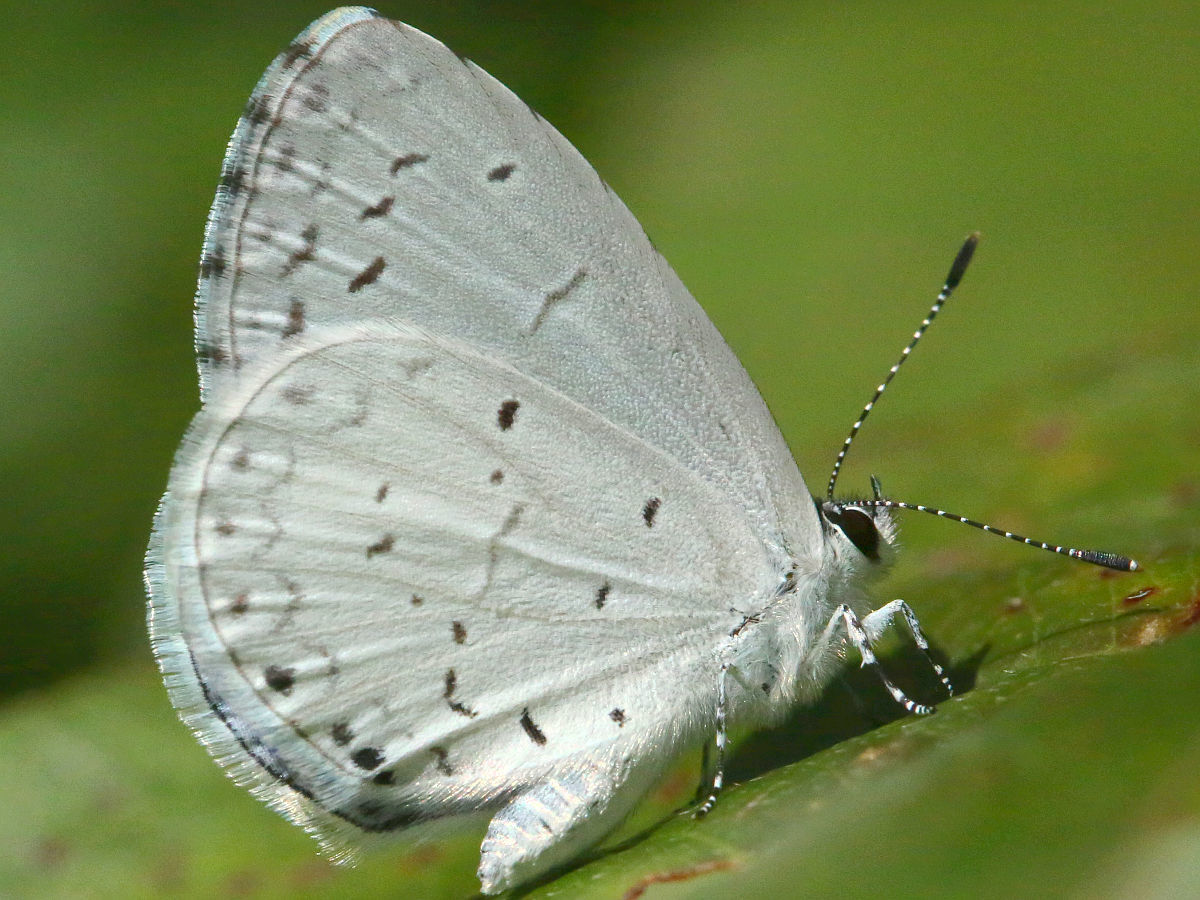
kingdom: Animalia
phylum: Arthropoda
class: Insecta
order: Lepidoptera
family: Lycaenidae
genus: Cyaniris
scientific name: Cyaniris neglecta
